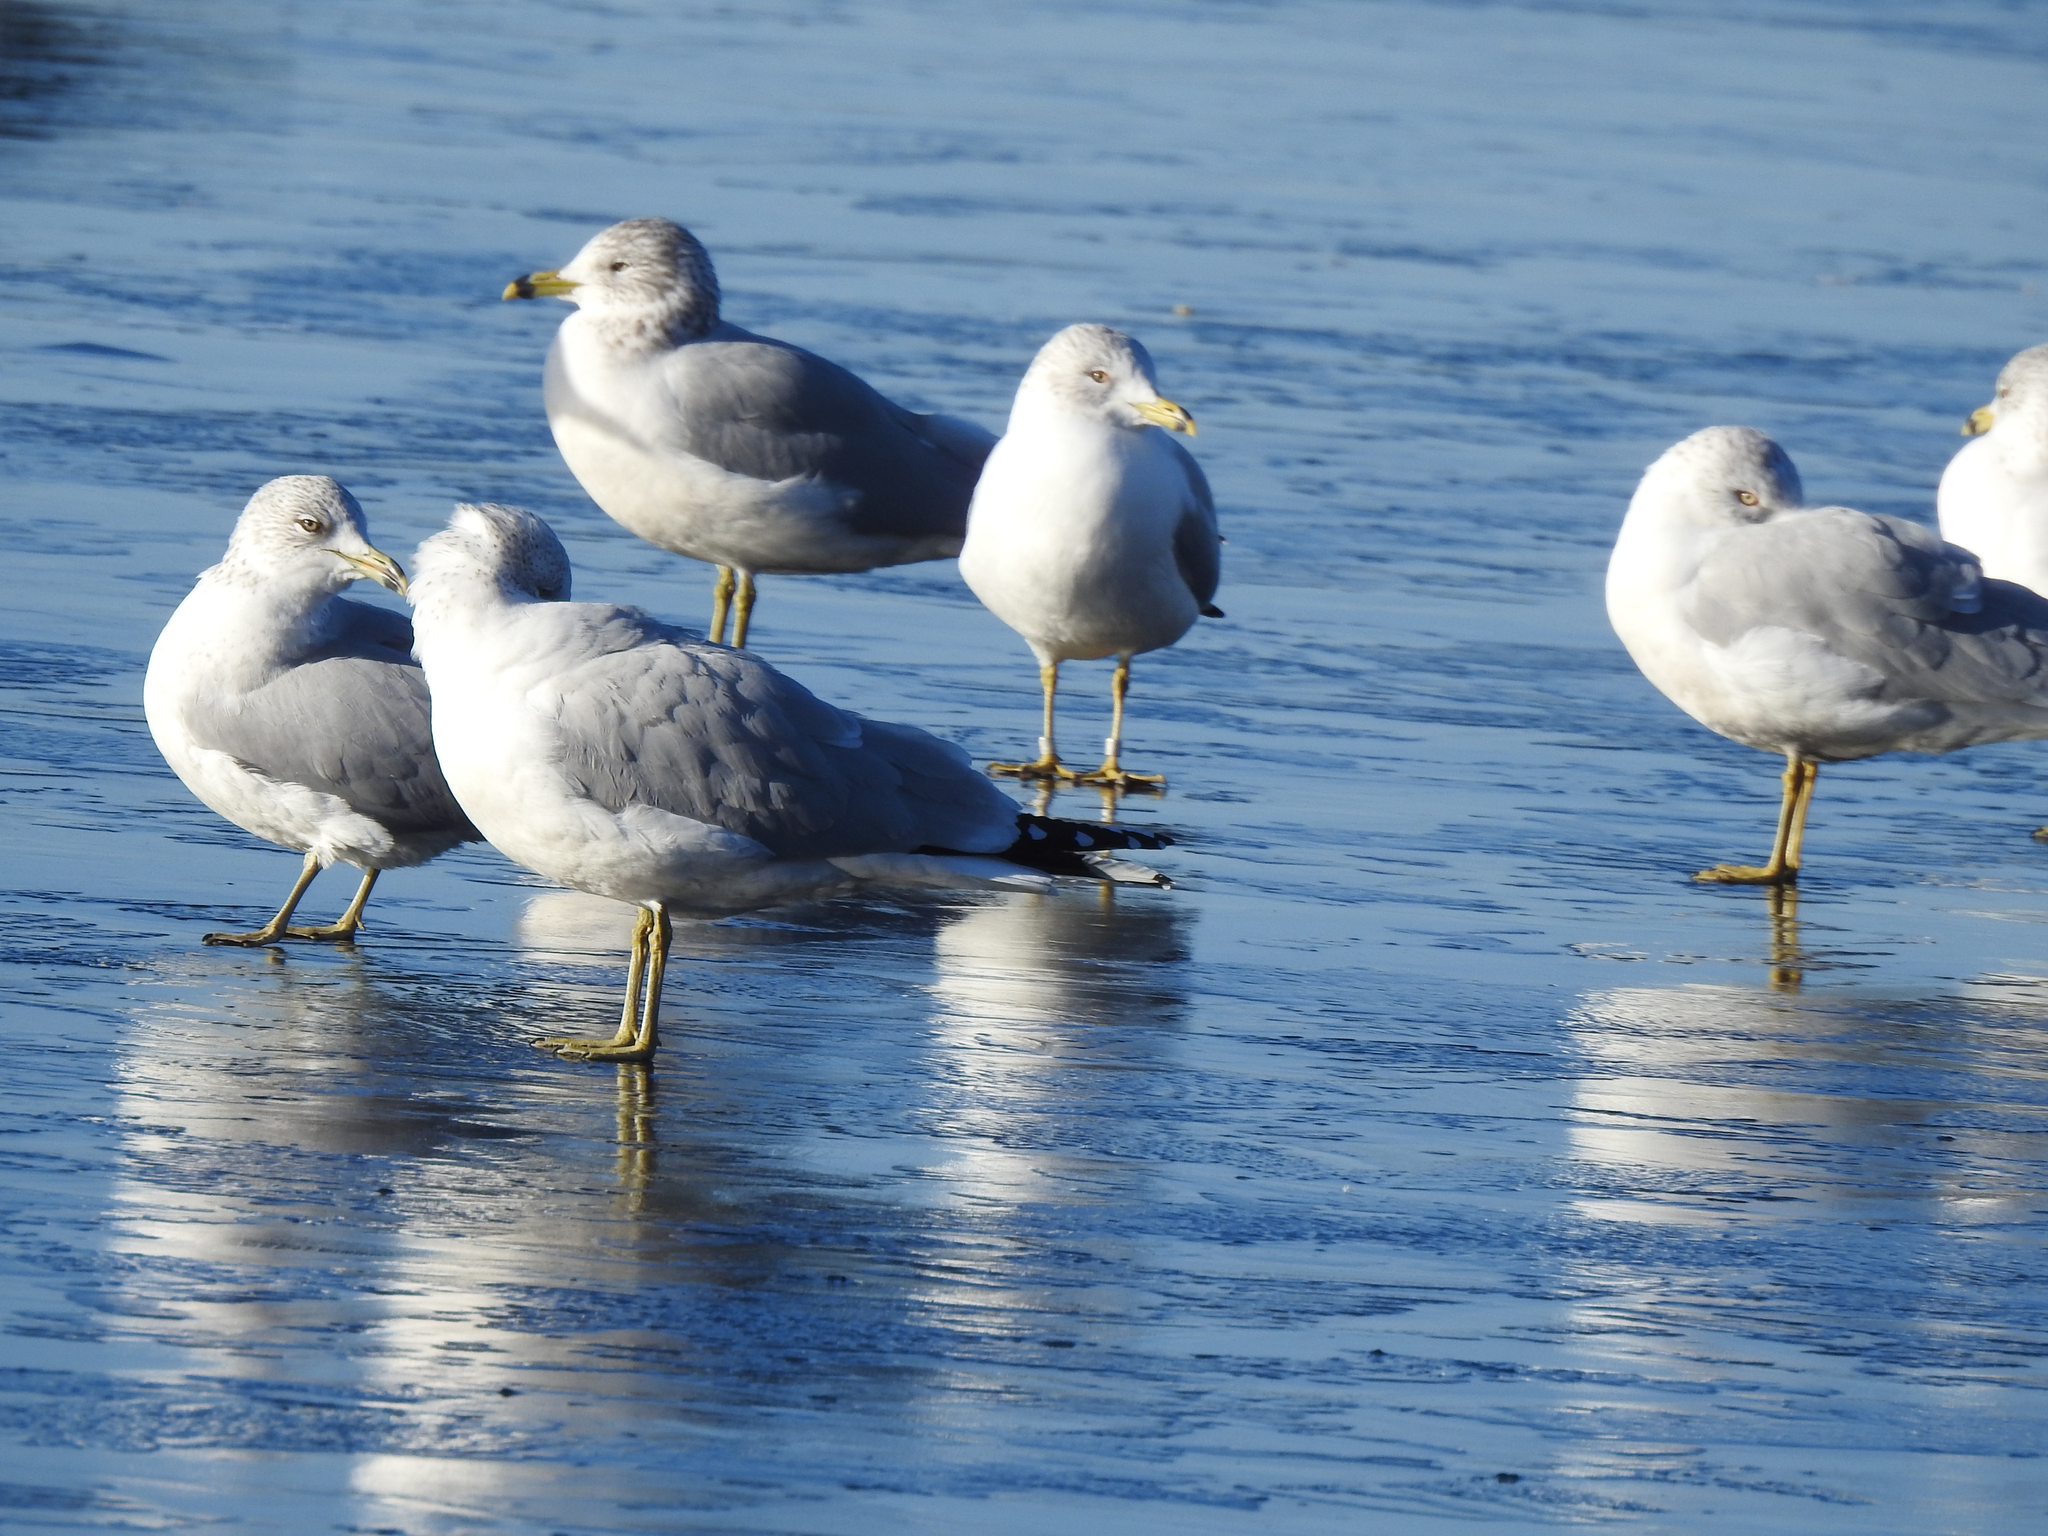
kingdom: Animalia
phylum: Chordata
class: Aves
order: Charadriiformes
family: Laridae
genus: Larus
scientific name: Larus delawarensis
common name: Ring-billed gull
